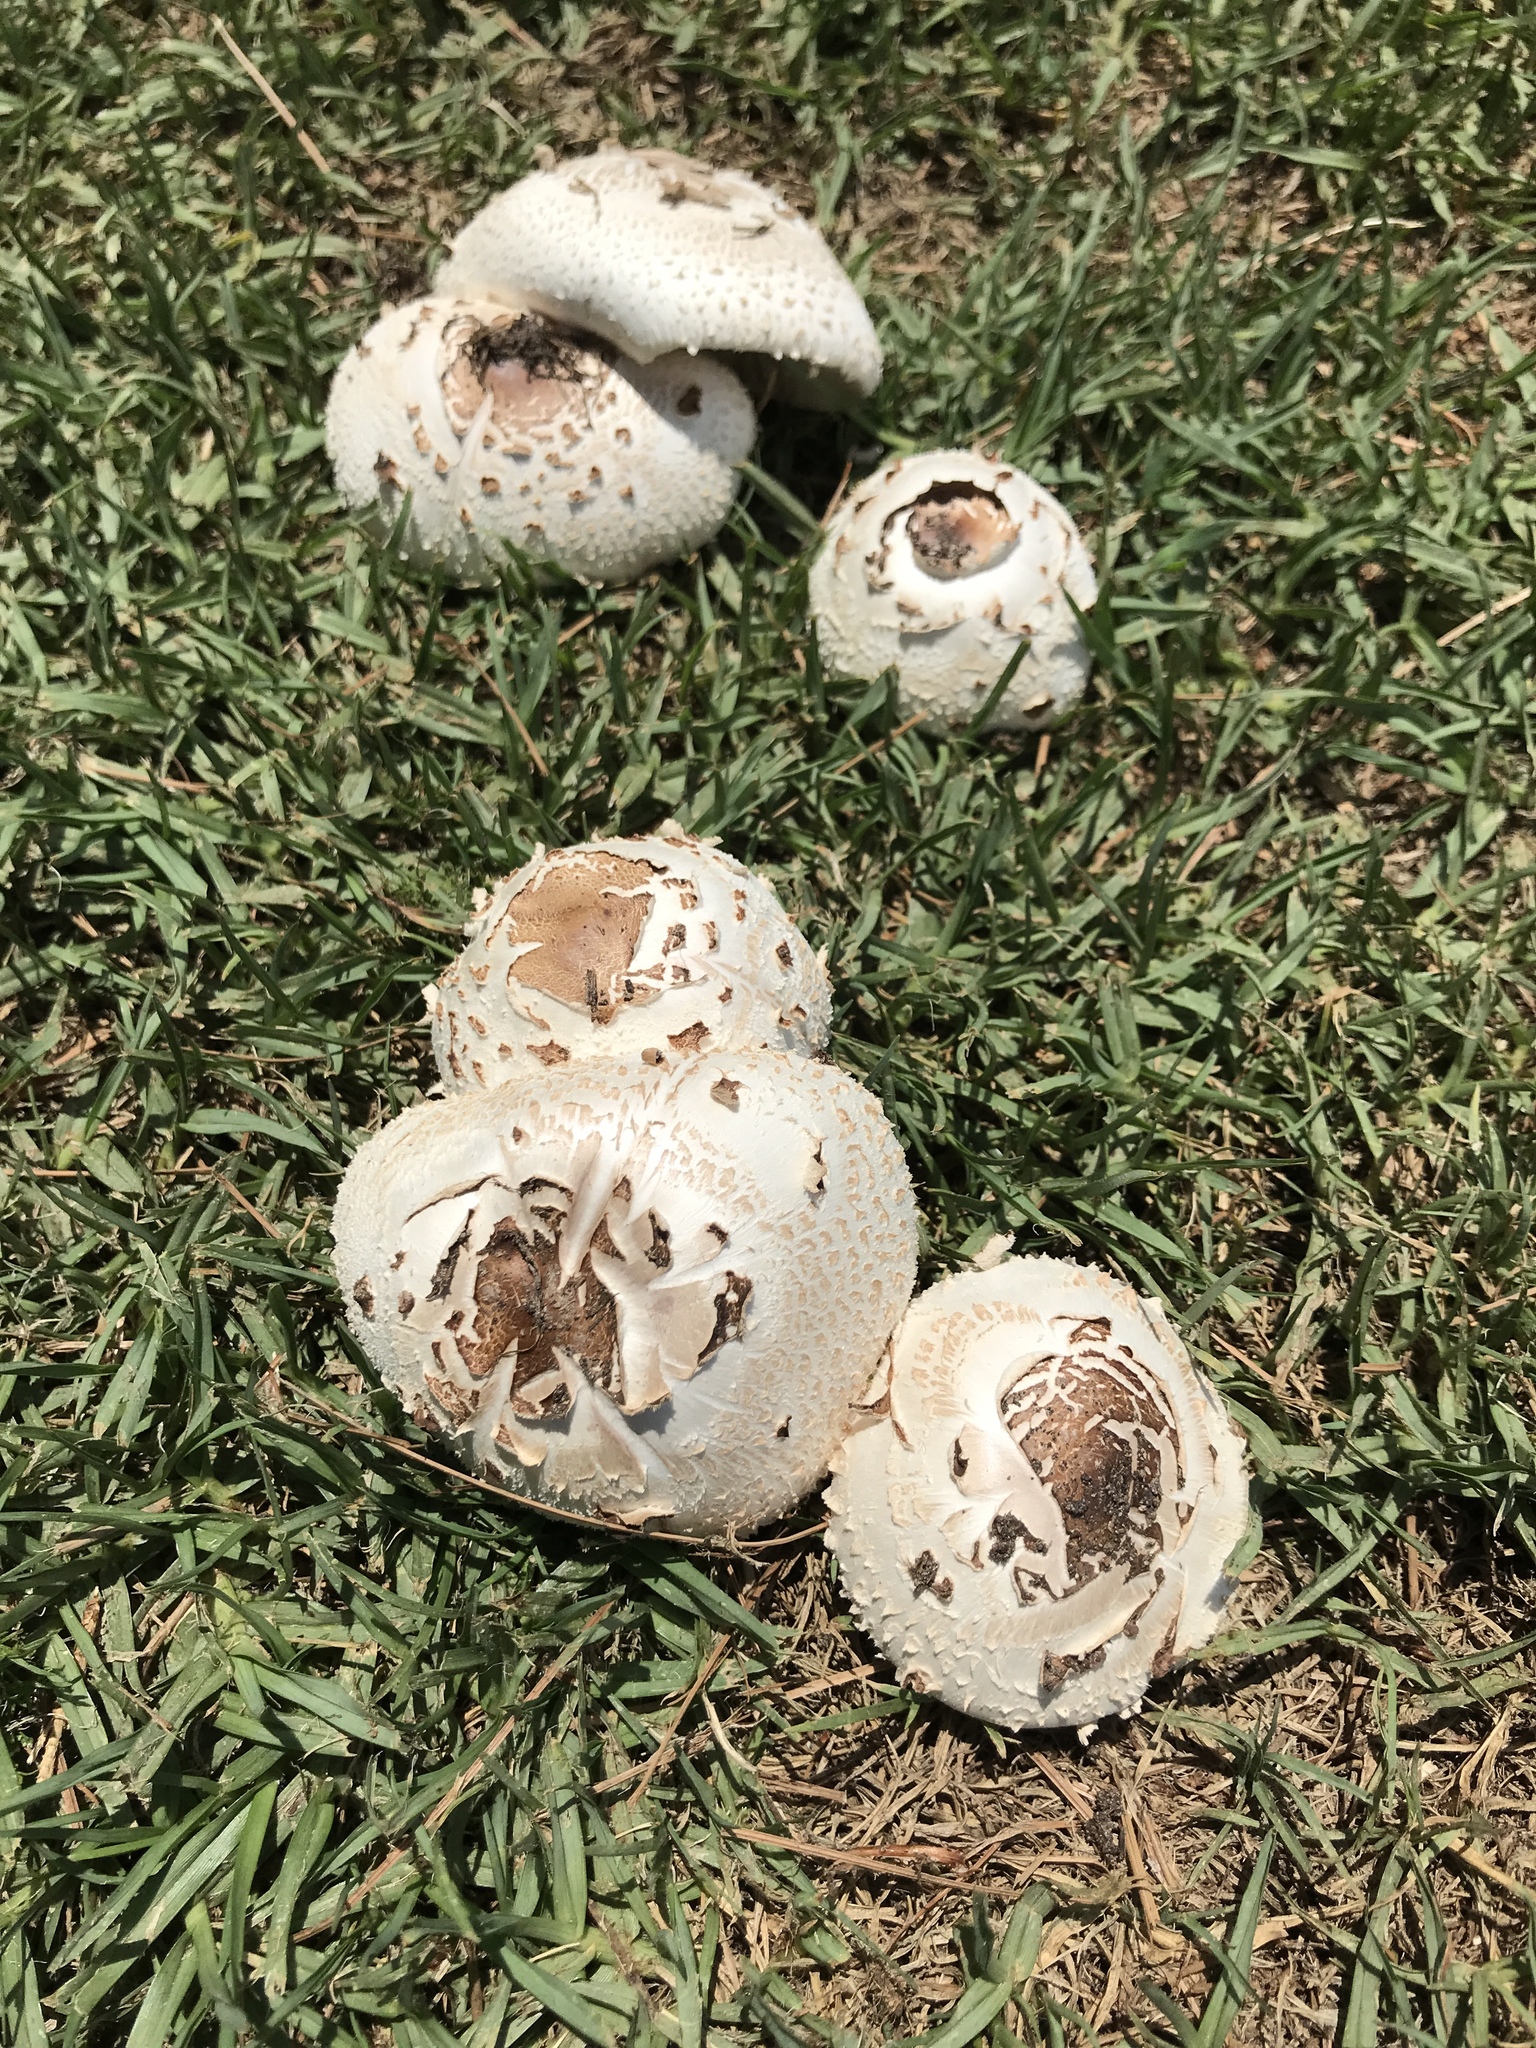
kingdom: Fungi
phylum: Basidiomycota
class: Agaricomycetes
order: Agaricales
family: Agaricaceae
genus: Chlorophyllum
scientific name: Chlorophyllum molybdites
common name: False parasol
